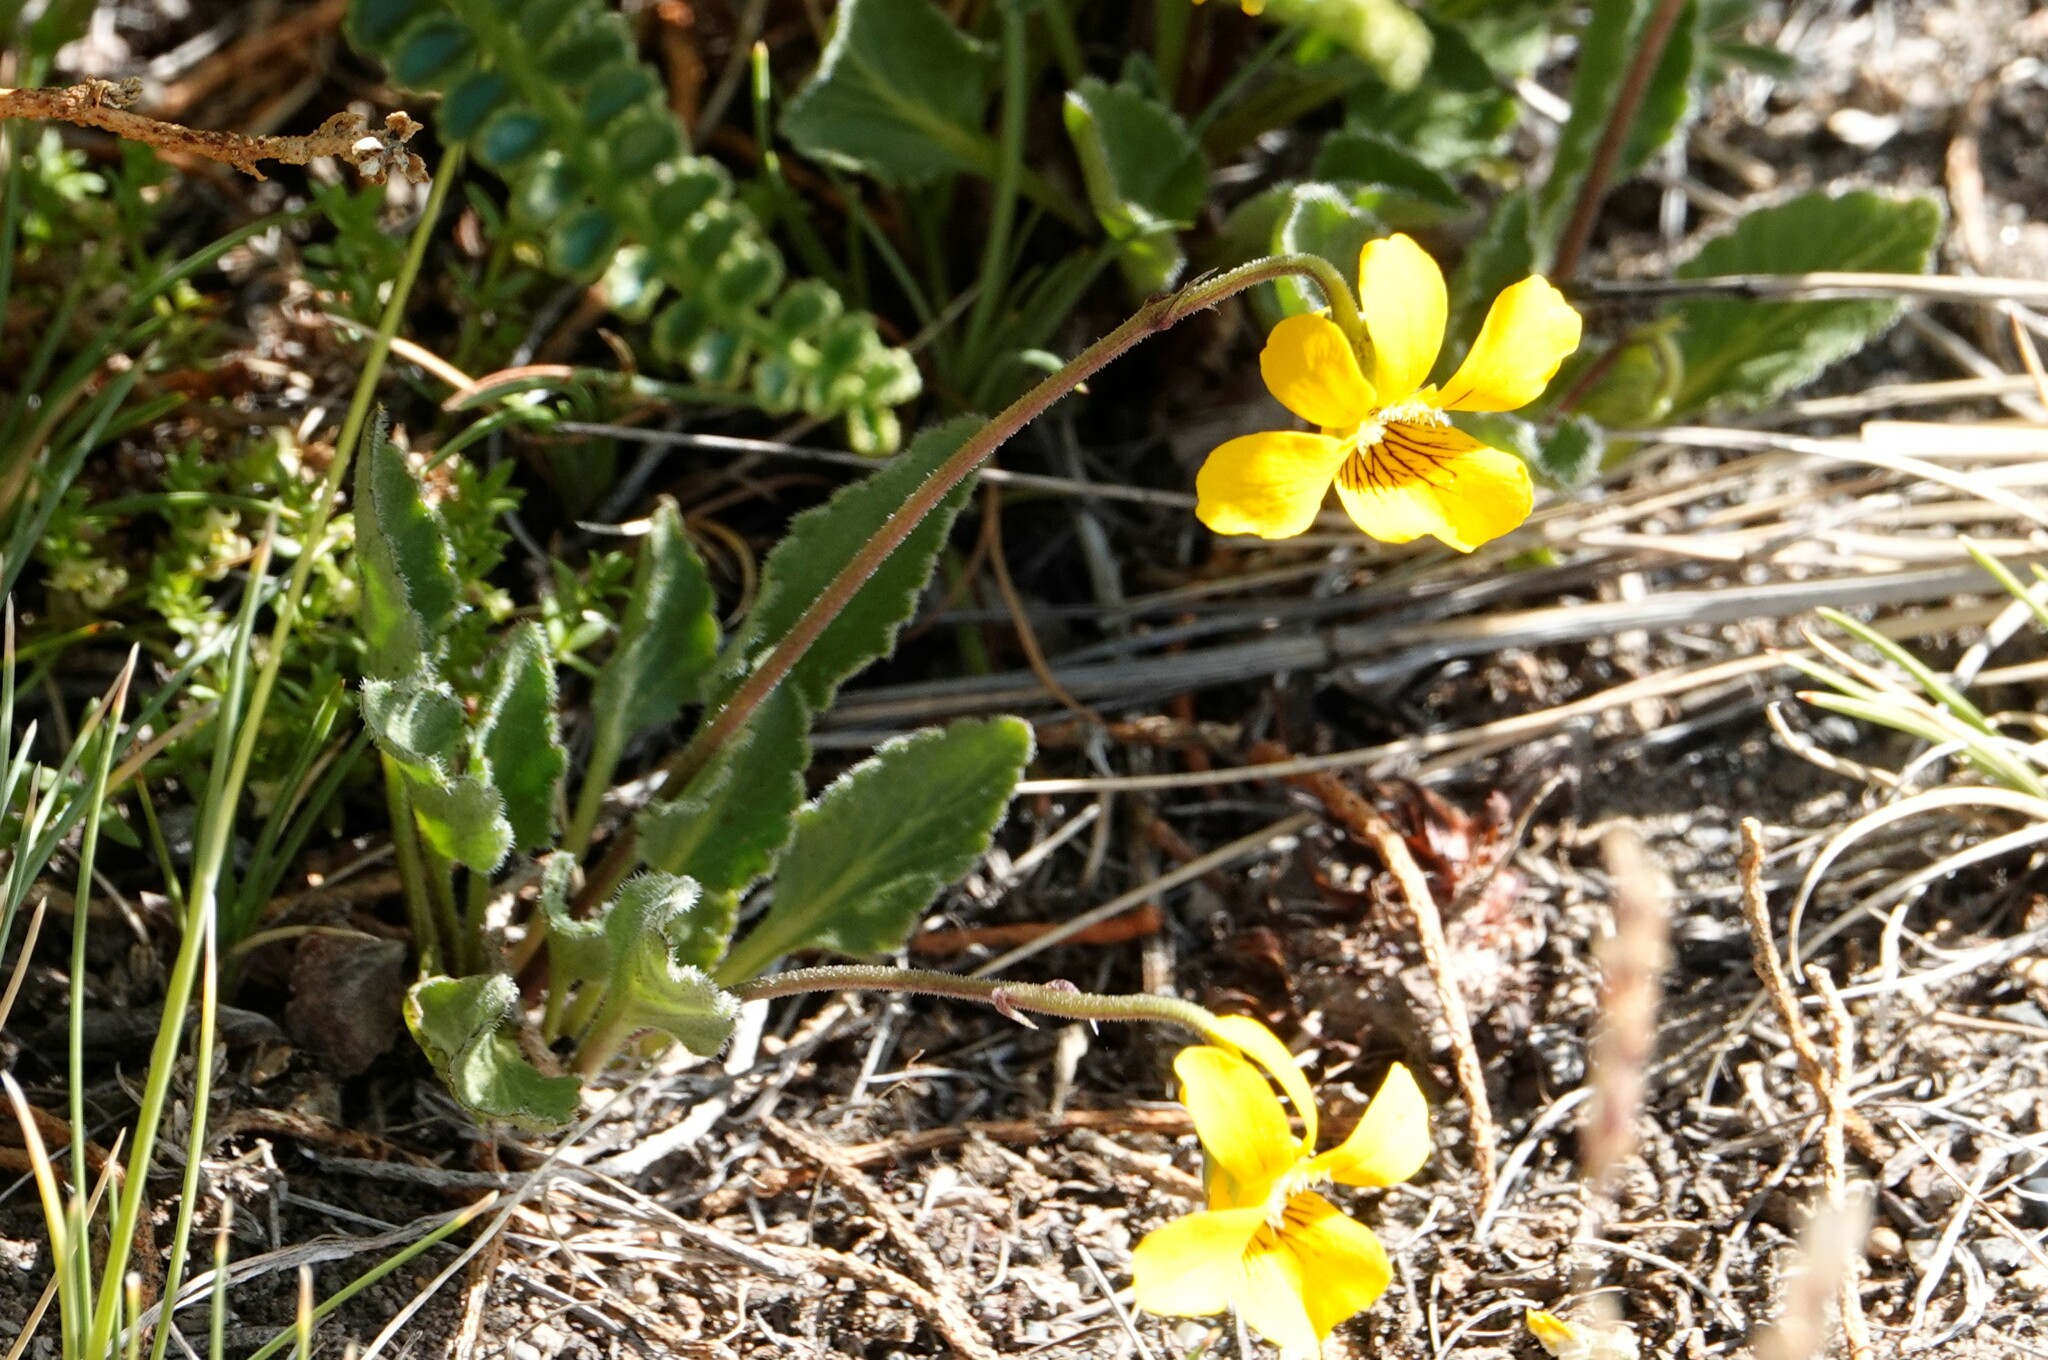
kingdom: Plantae
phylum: Tracheophyta
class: Magnoliopsida
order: Malpighiales
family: Violaceae
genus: Viola
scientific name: Viola maculata
